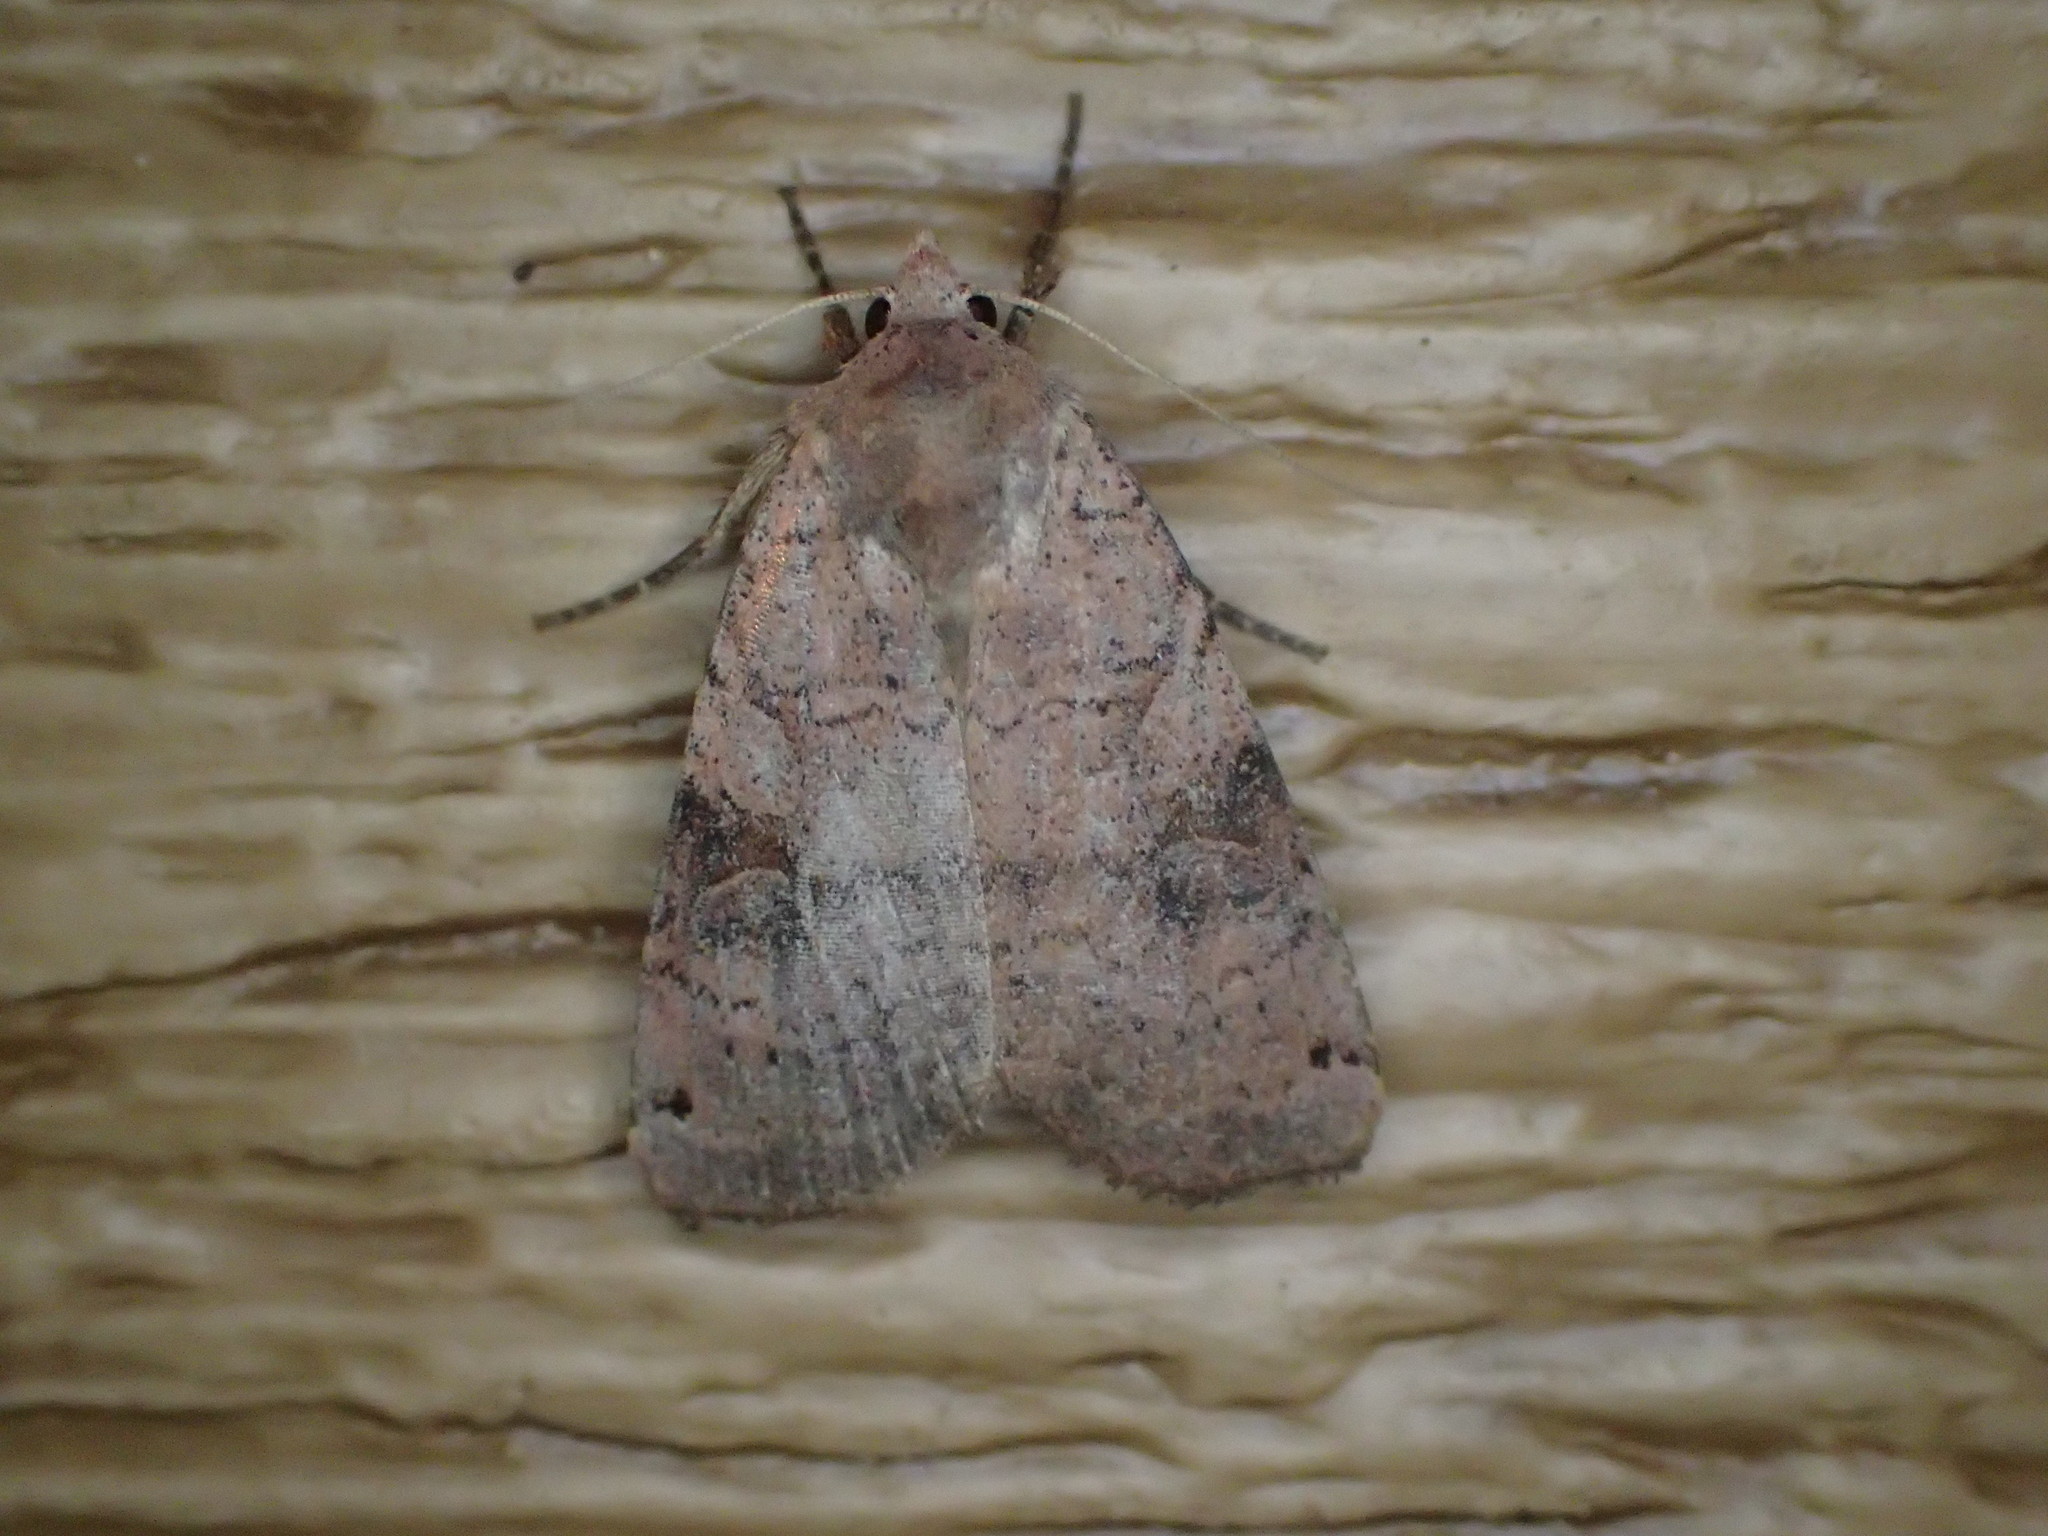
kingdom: Animalia
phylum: Arthropoda
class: Insecta
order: Lepidoptera
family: Noctuidae
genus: Xestia
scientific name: Xestia smithii
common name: Smith's dart
